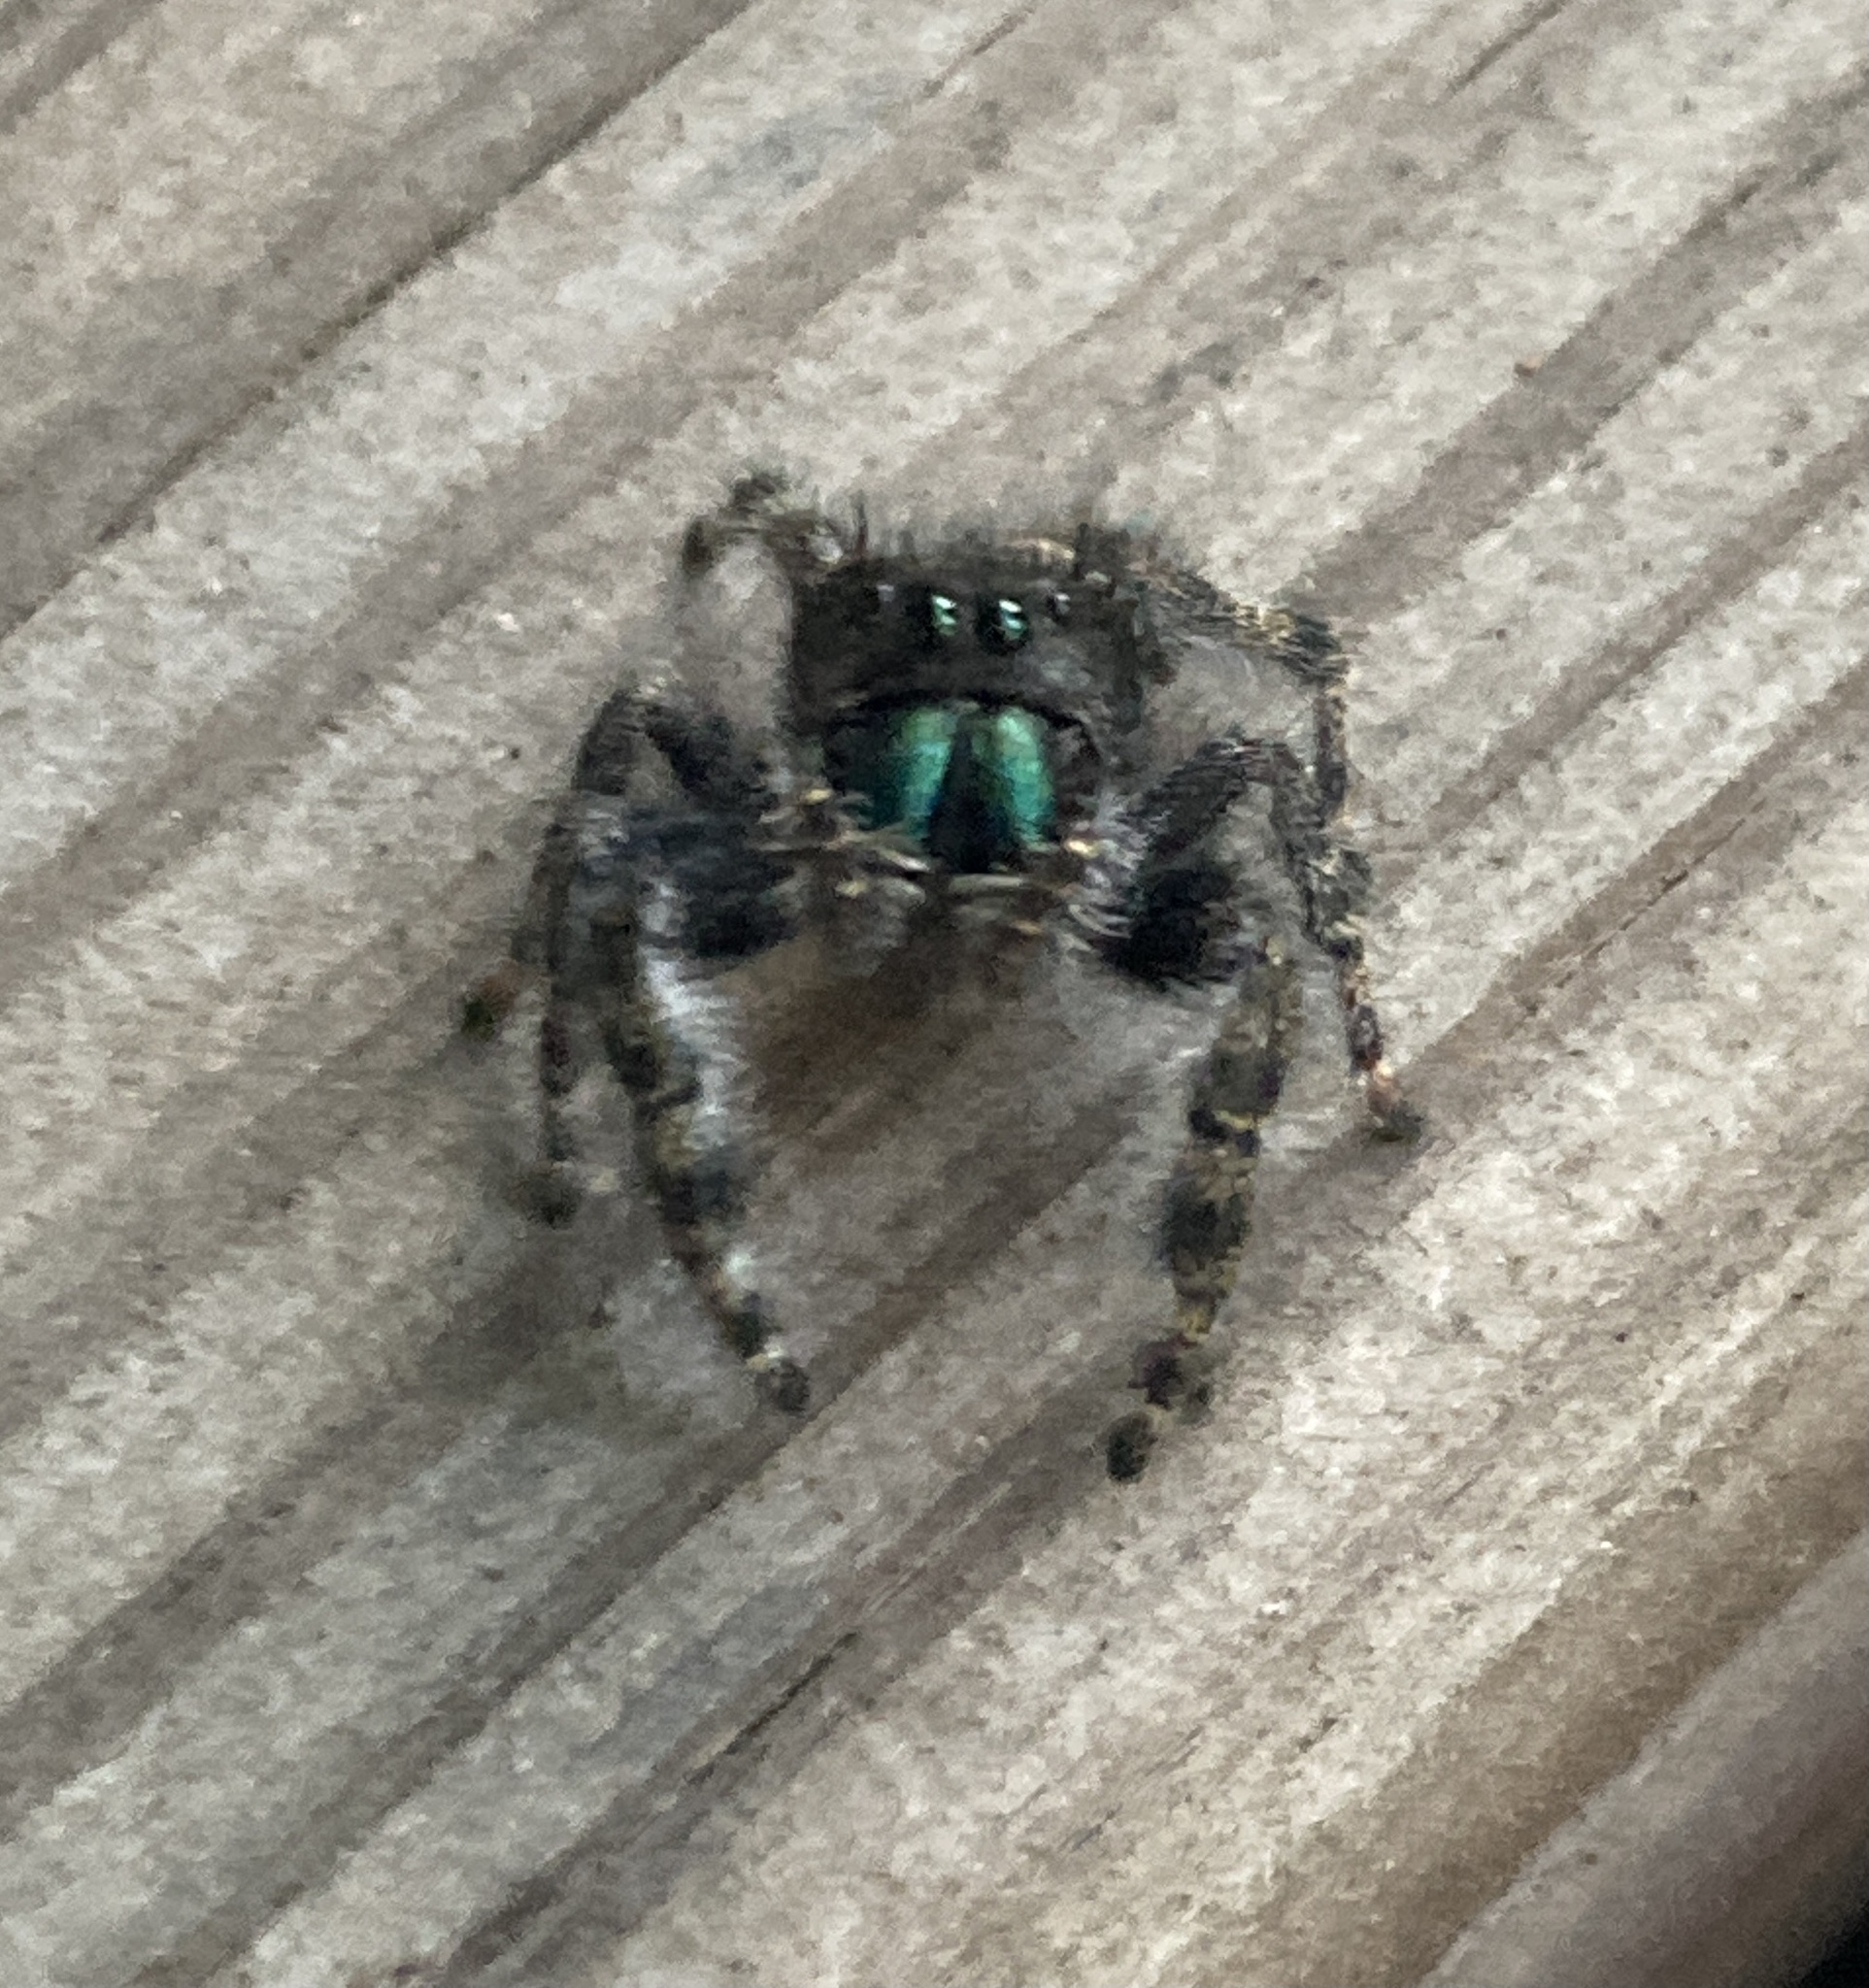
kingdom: Animalia
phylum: Arthropoda
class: Arachnida
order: Araneae
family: Salticidae
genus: Phidippus
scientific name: Phidippus audax
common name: Bold jumper
